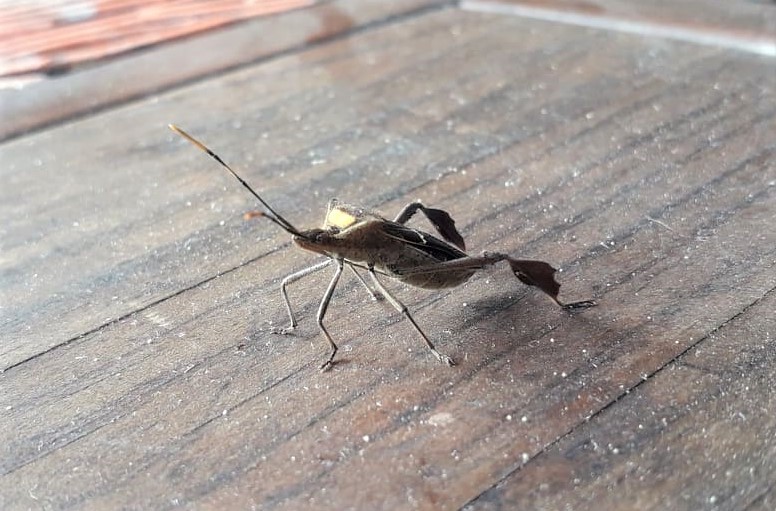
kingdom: Animalia
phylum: Arthropoda
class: Insecta
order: Hemiptera
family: Coreidae
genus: Leptoglossus
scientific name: Leptoglossus macrophyllus
